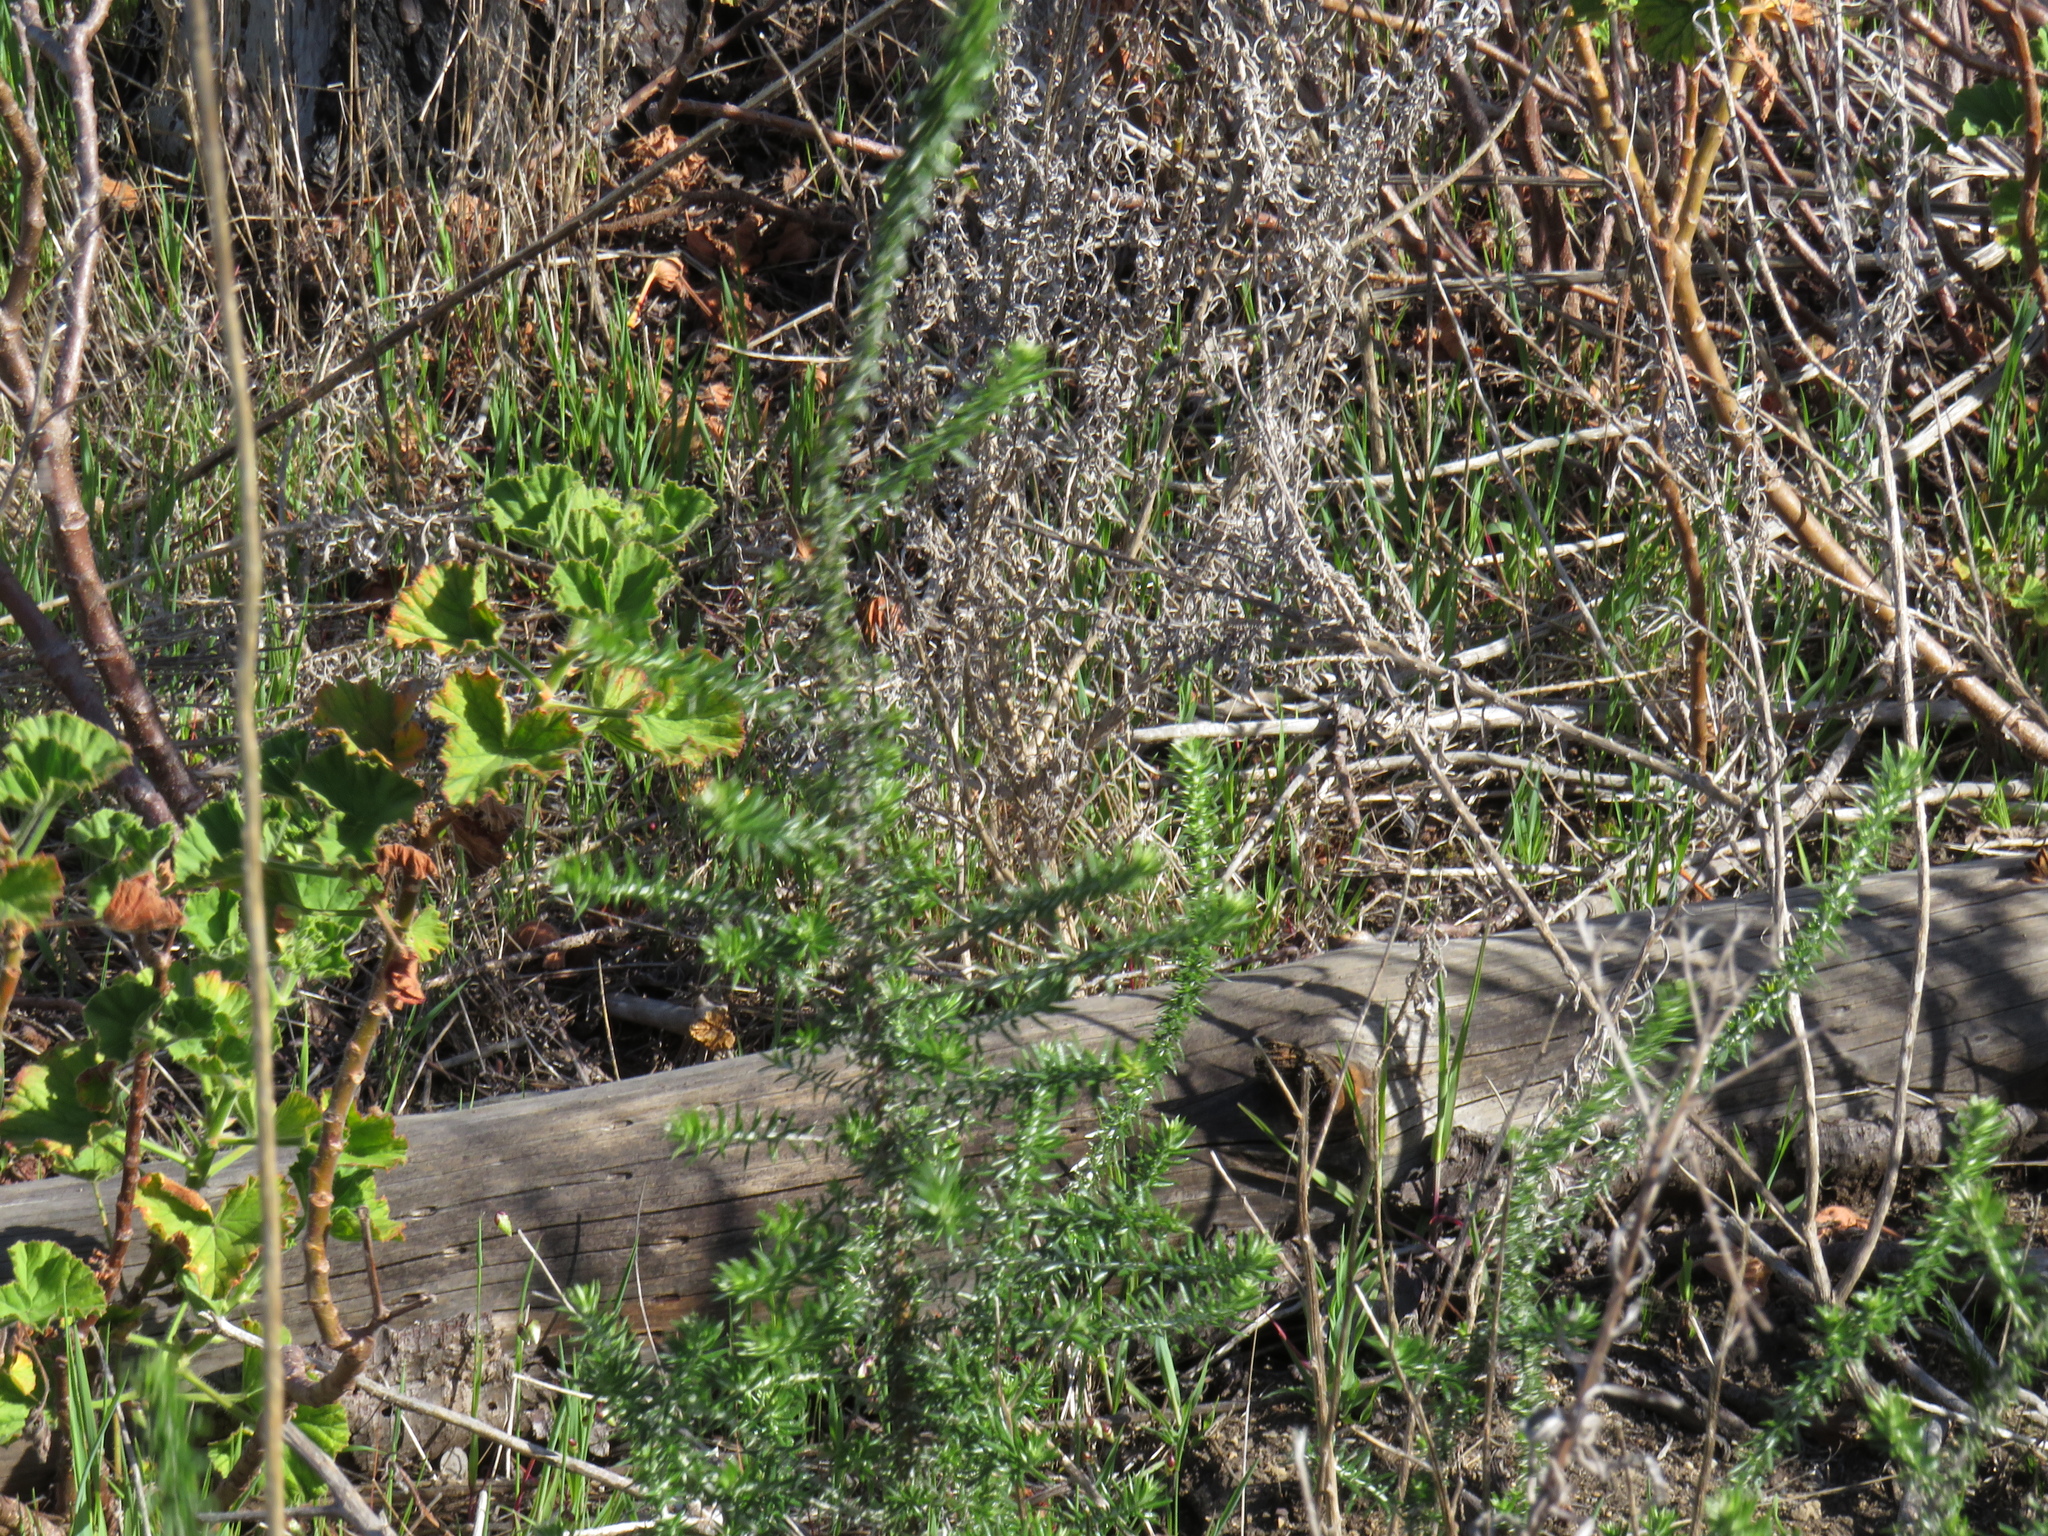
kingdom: Plantae
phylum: Tracheophyta
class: Magnoliopsida
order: Asterales
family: Asteraceae
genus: Metalasia
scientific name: Metalasia densa
